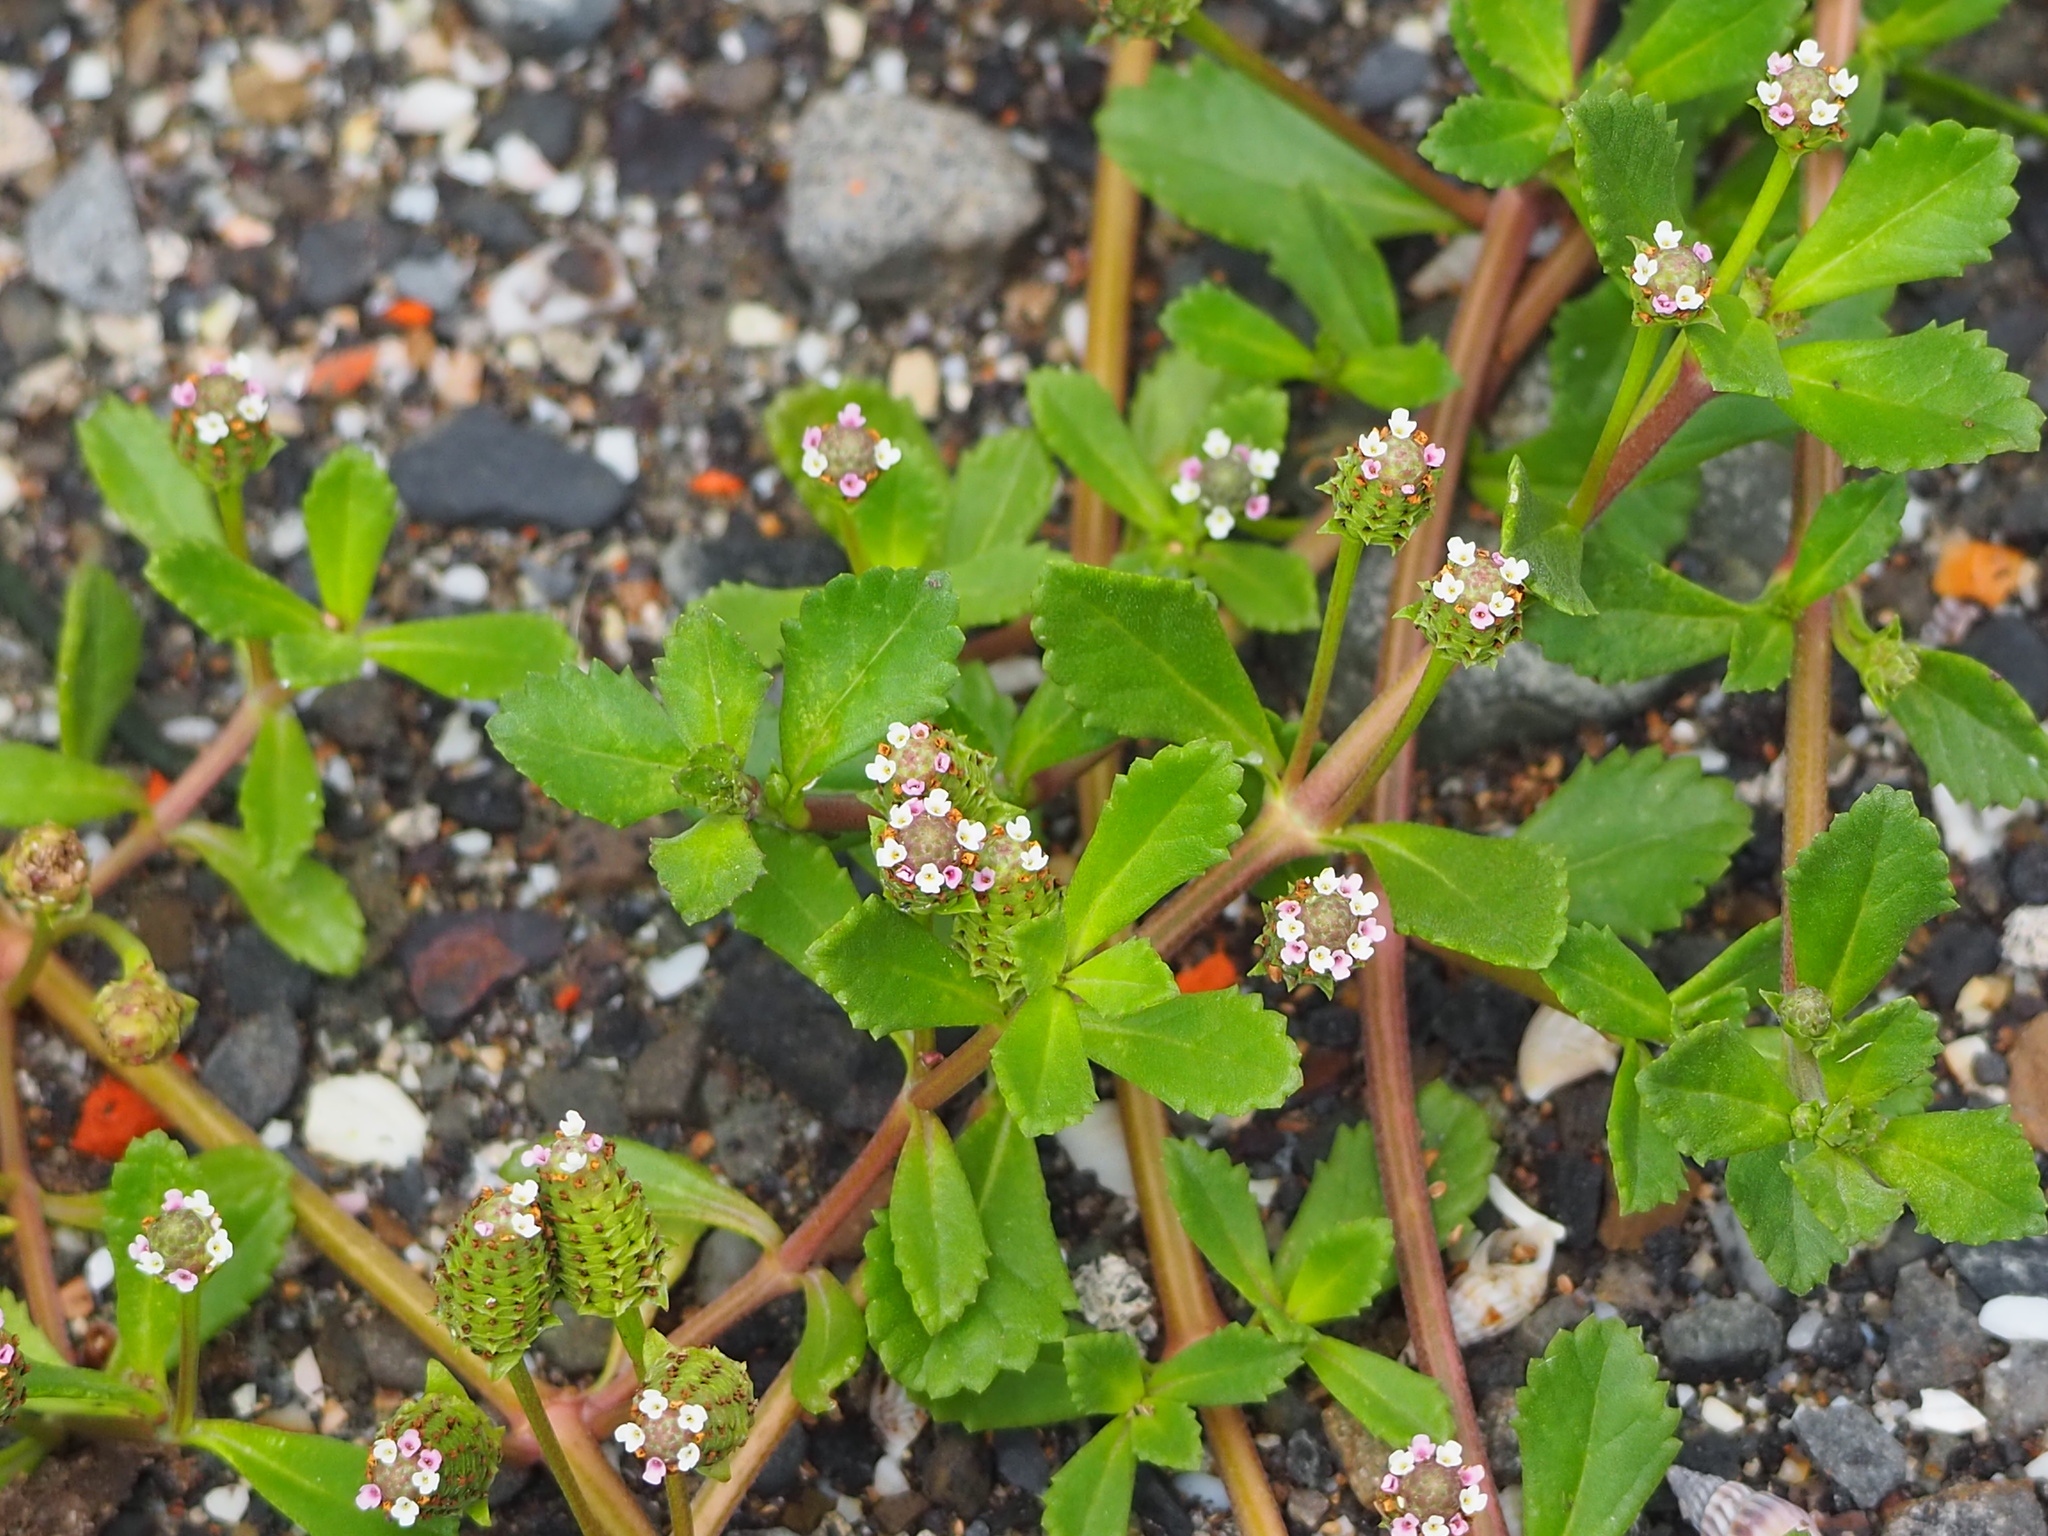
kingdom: Plantae
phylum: Tracheophyta
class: Magnoliopsida
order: Lamiales
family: Verbenaceae
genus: Phyla
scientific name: Phyla nodiflora
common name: Frogfruit
